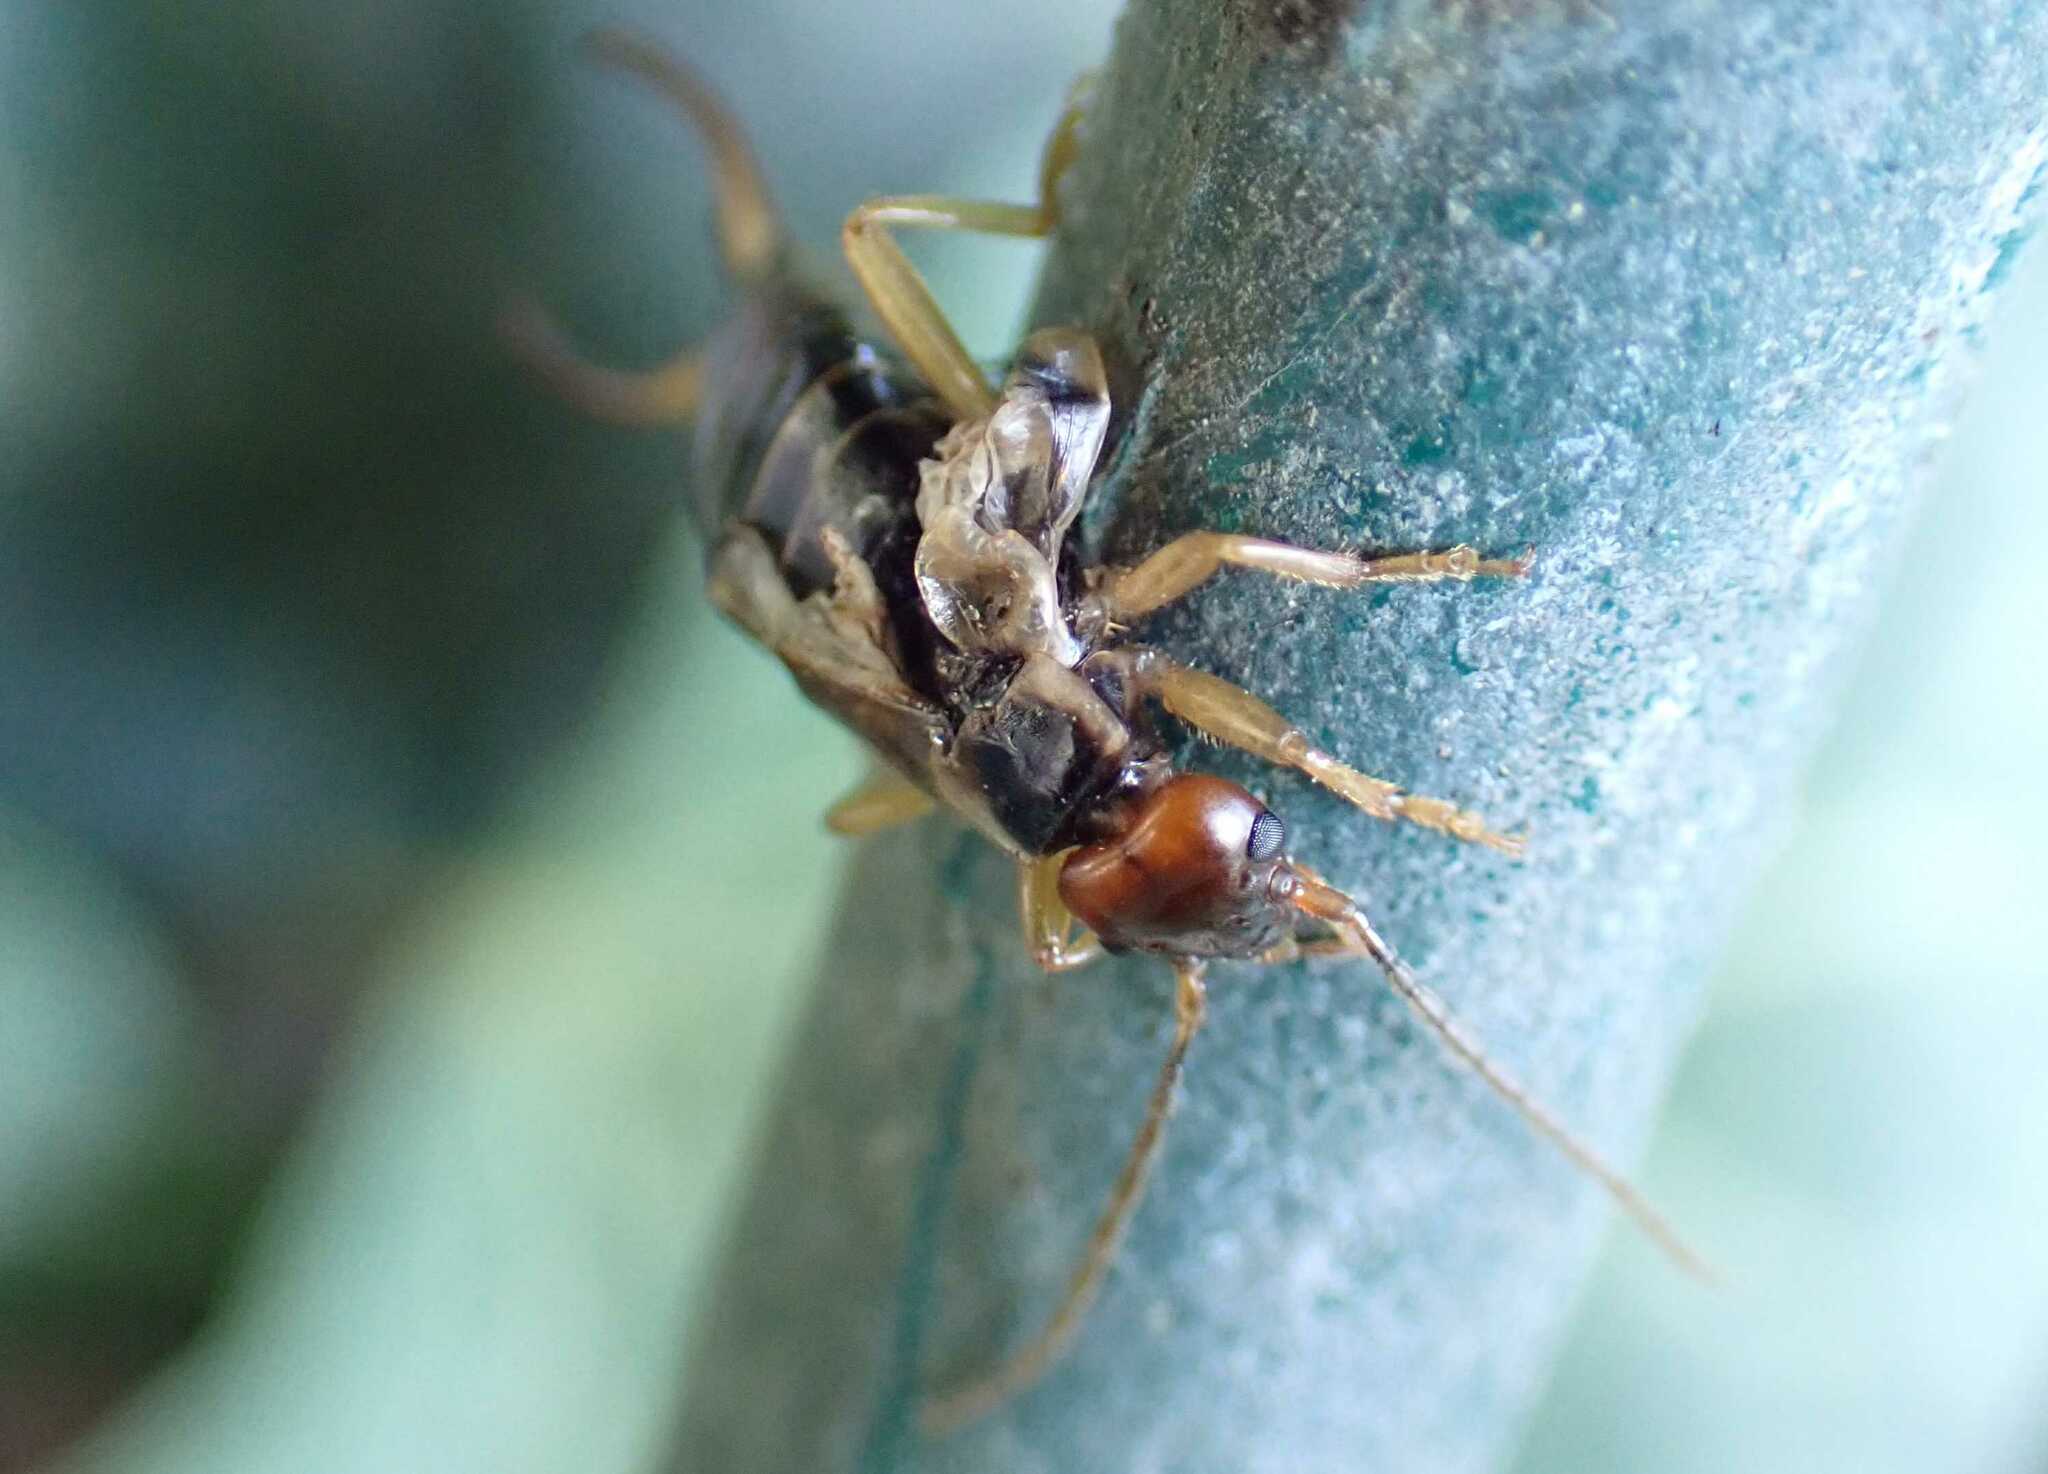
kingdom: Animalia
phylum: Arthropoda
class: Insecta
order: Dermaptera
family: Forficulidae
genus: Forficula
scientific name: Forficula
